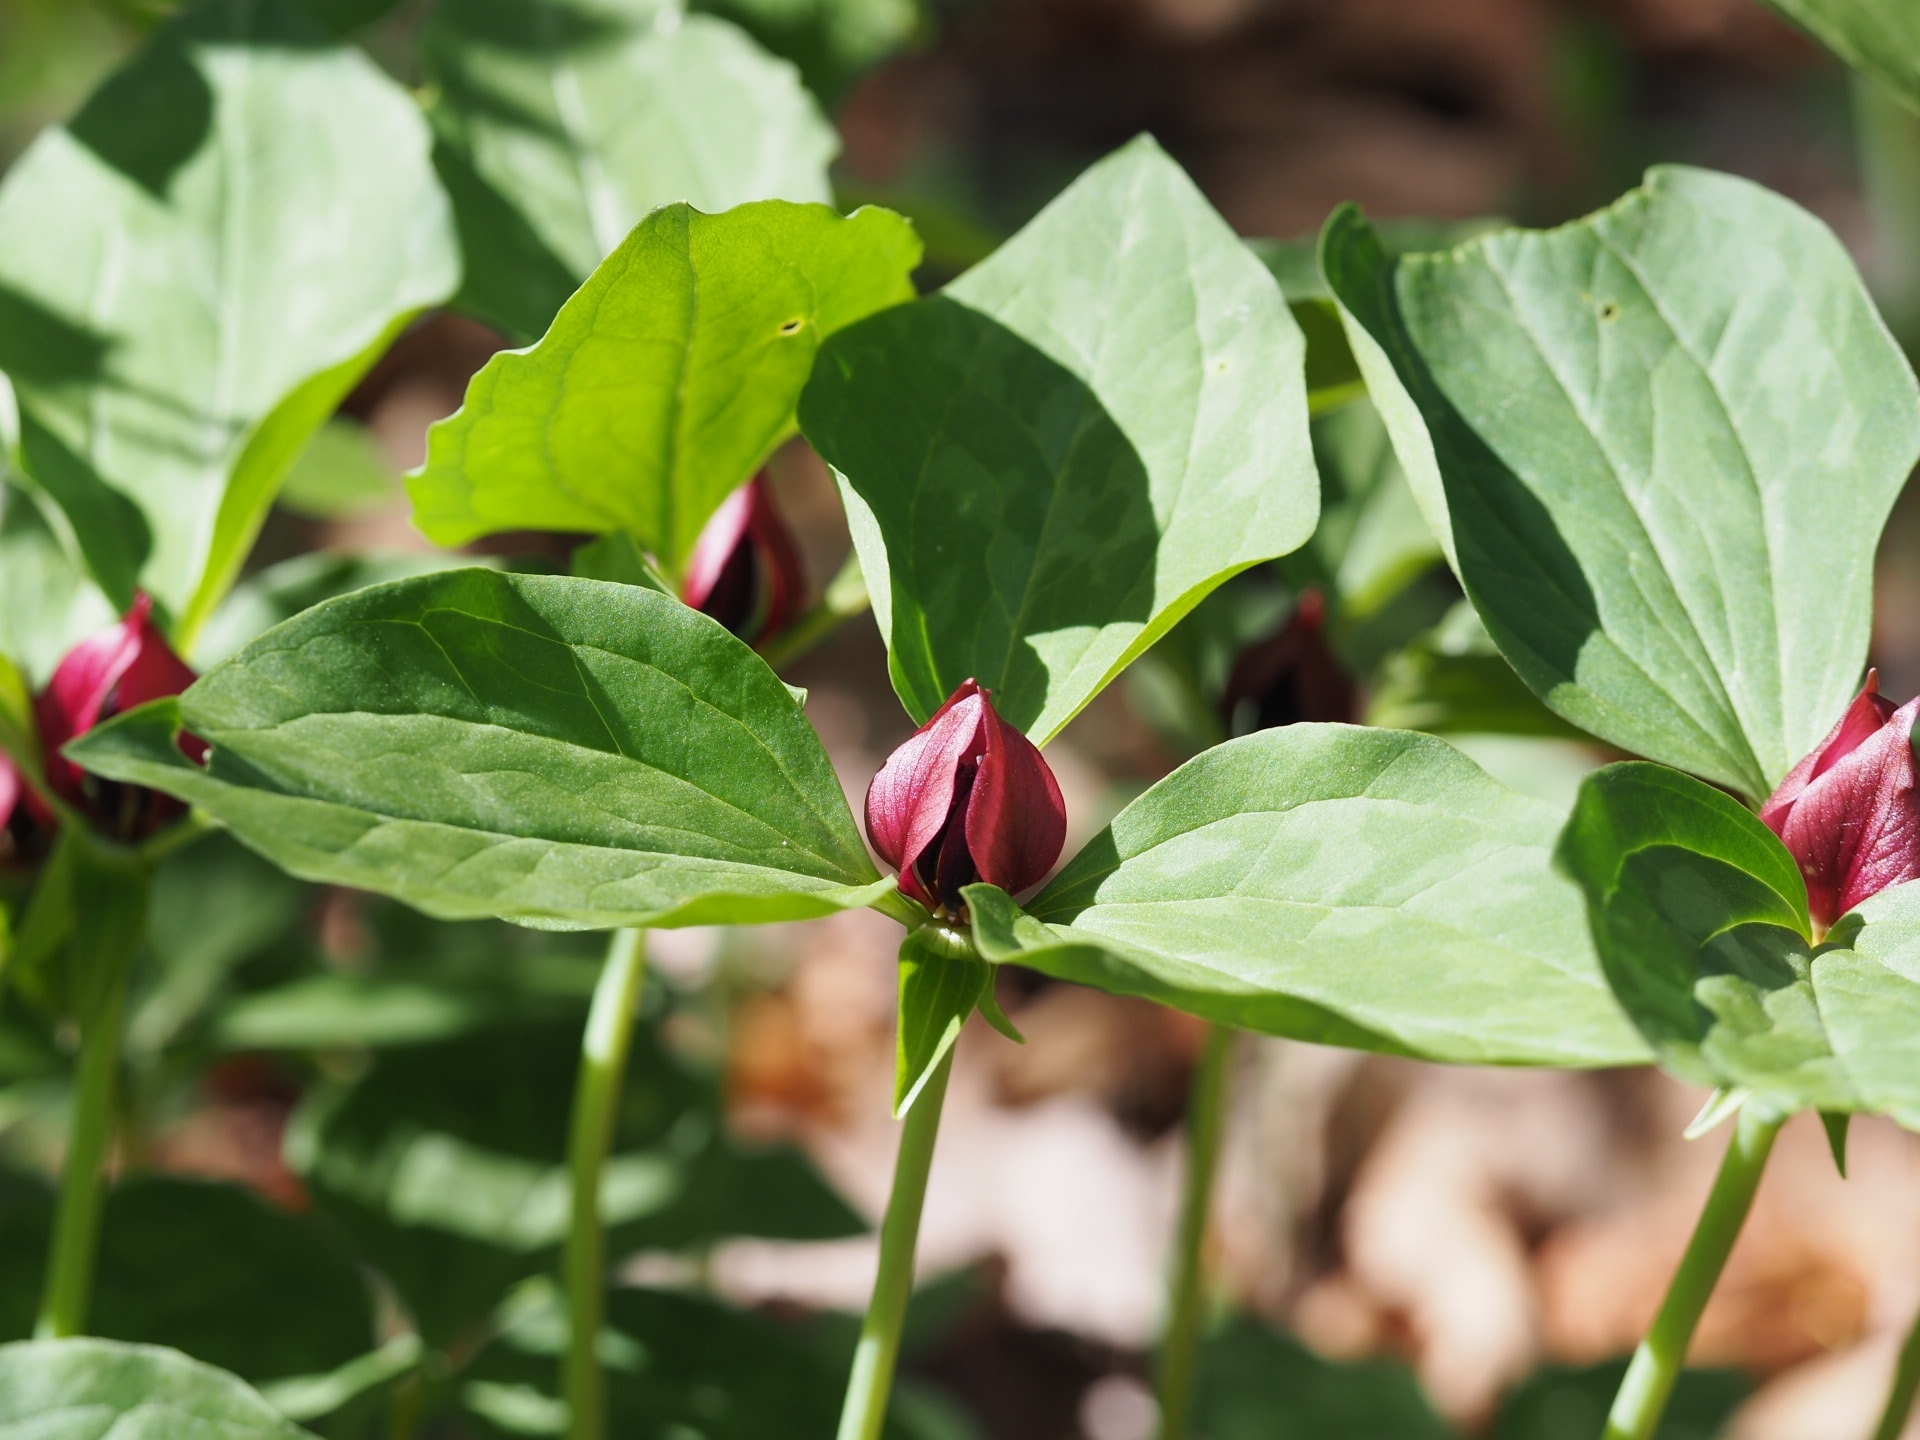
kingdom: Plantae
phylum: Tracheophyta
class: Liliopsida
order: Liliales
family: Melanthiaceae
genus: Trillium
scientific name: Trillium recurvatum
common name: Bloody butcher
